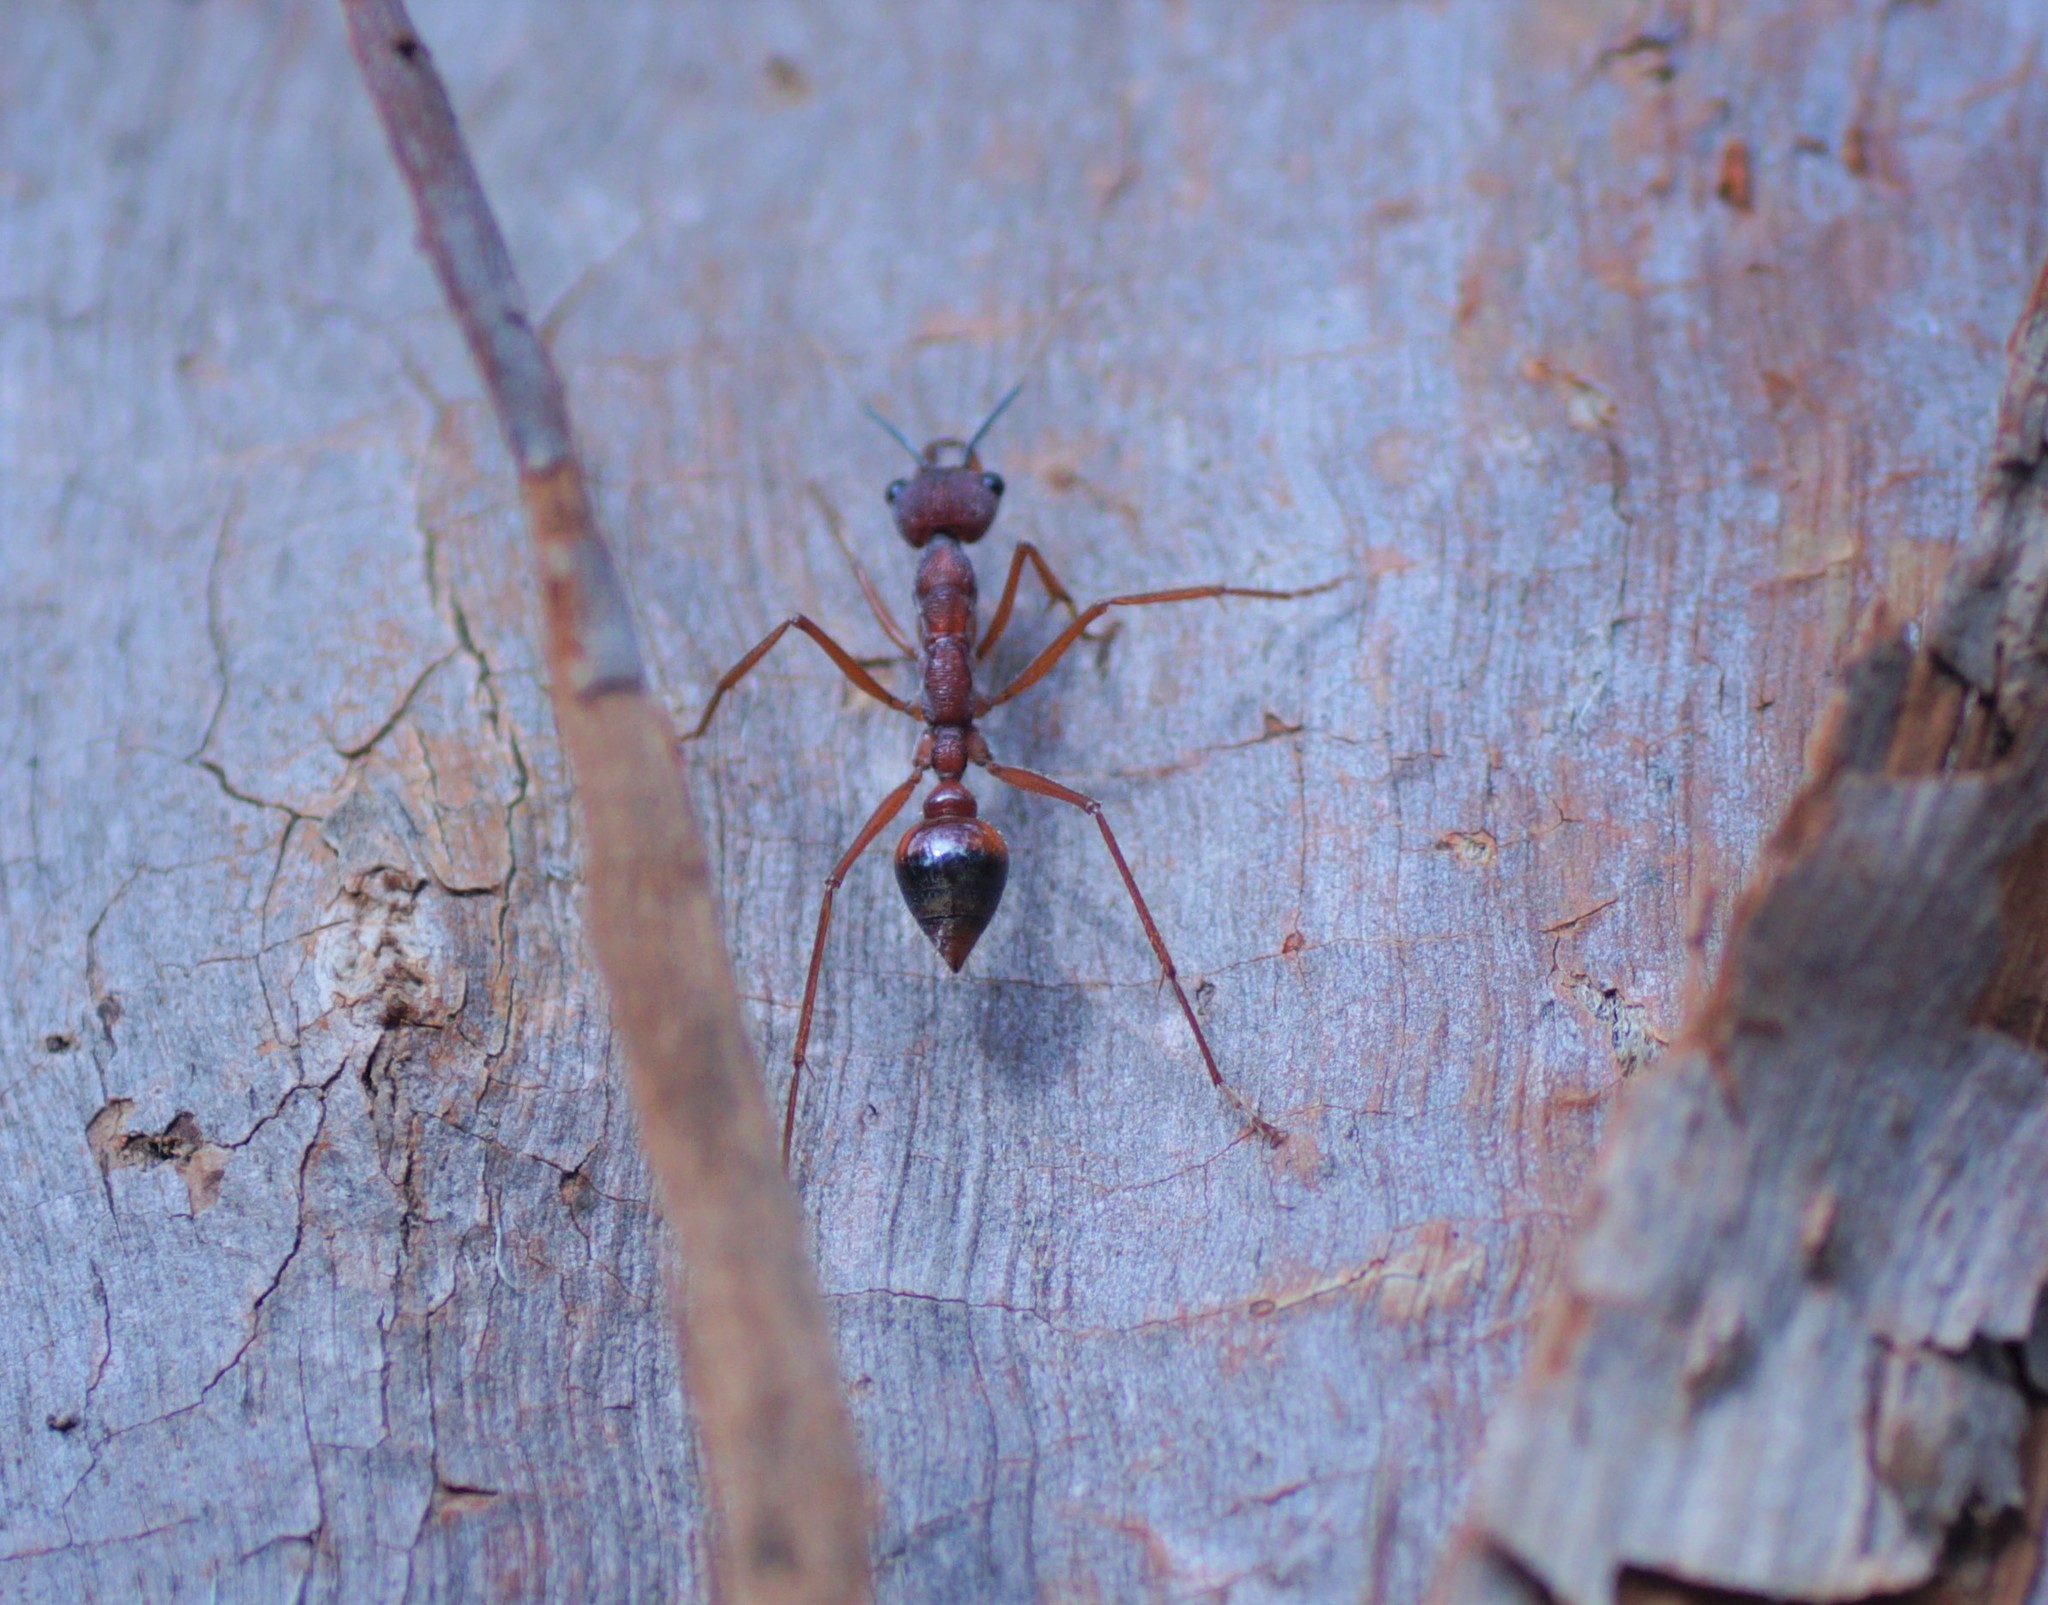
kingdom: Animalia
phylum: Arthropoda
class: Insecta
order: Hymenoptera
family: Formicidae
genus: Myrmecia
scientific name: Myrmecia nigriscapa
